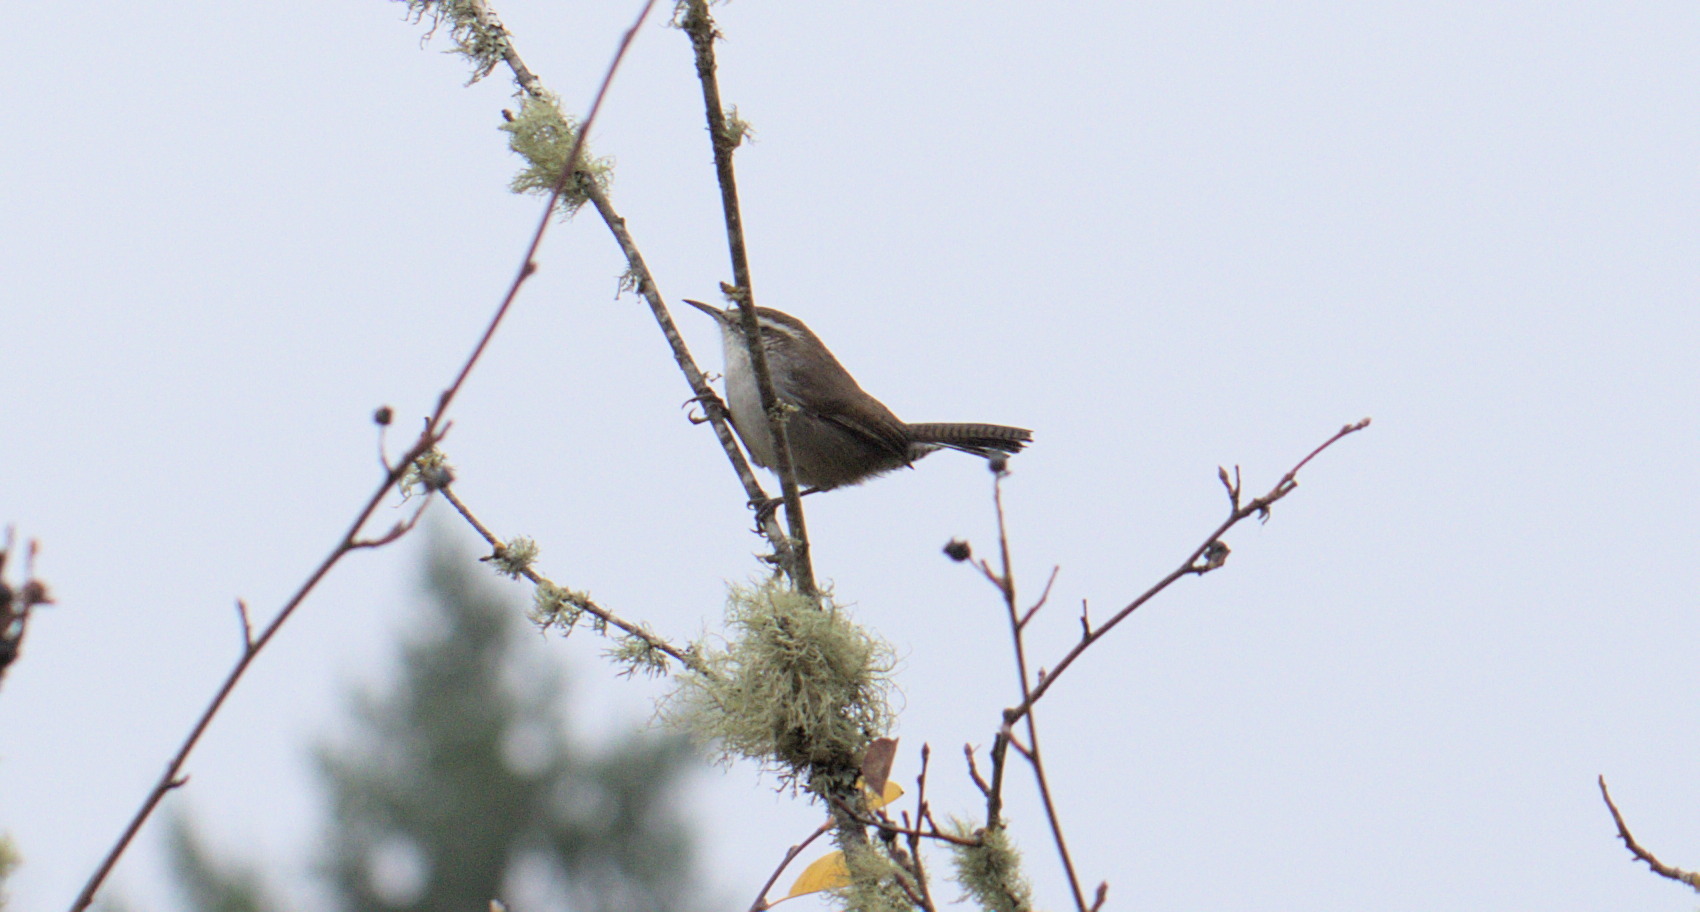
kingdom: Animalia
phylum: Chordata
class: Aves
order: Passeriformes
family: Troglodytidae
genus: Thryomanes
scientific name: Thryomanes bewickii
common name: Bewick's wren
